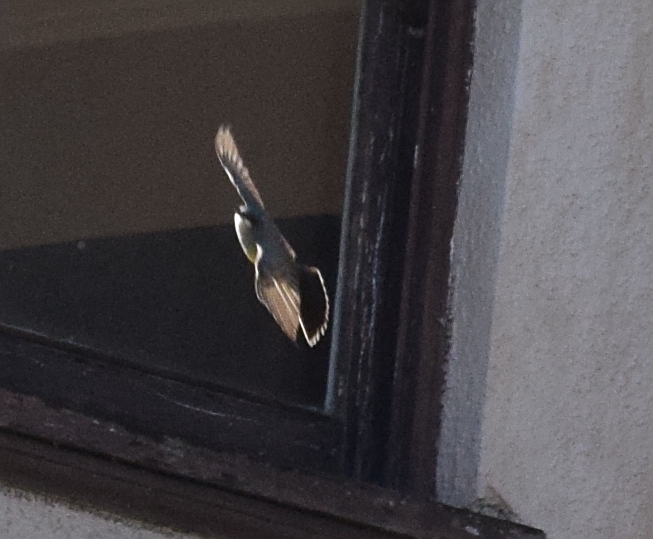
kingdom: Animalia
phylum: Chordata
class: Aves
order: Passeriformes
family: Tyrannidae
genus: Tyrannus
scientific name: Tyrannus vociferans
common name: Cassin's kingbird
